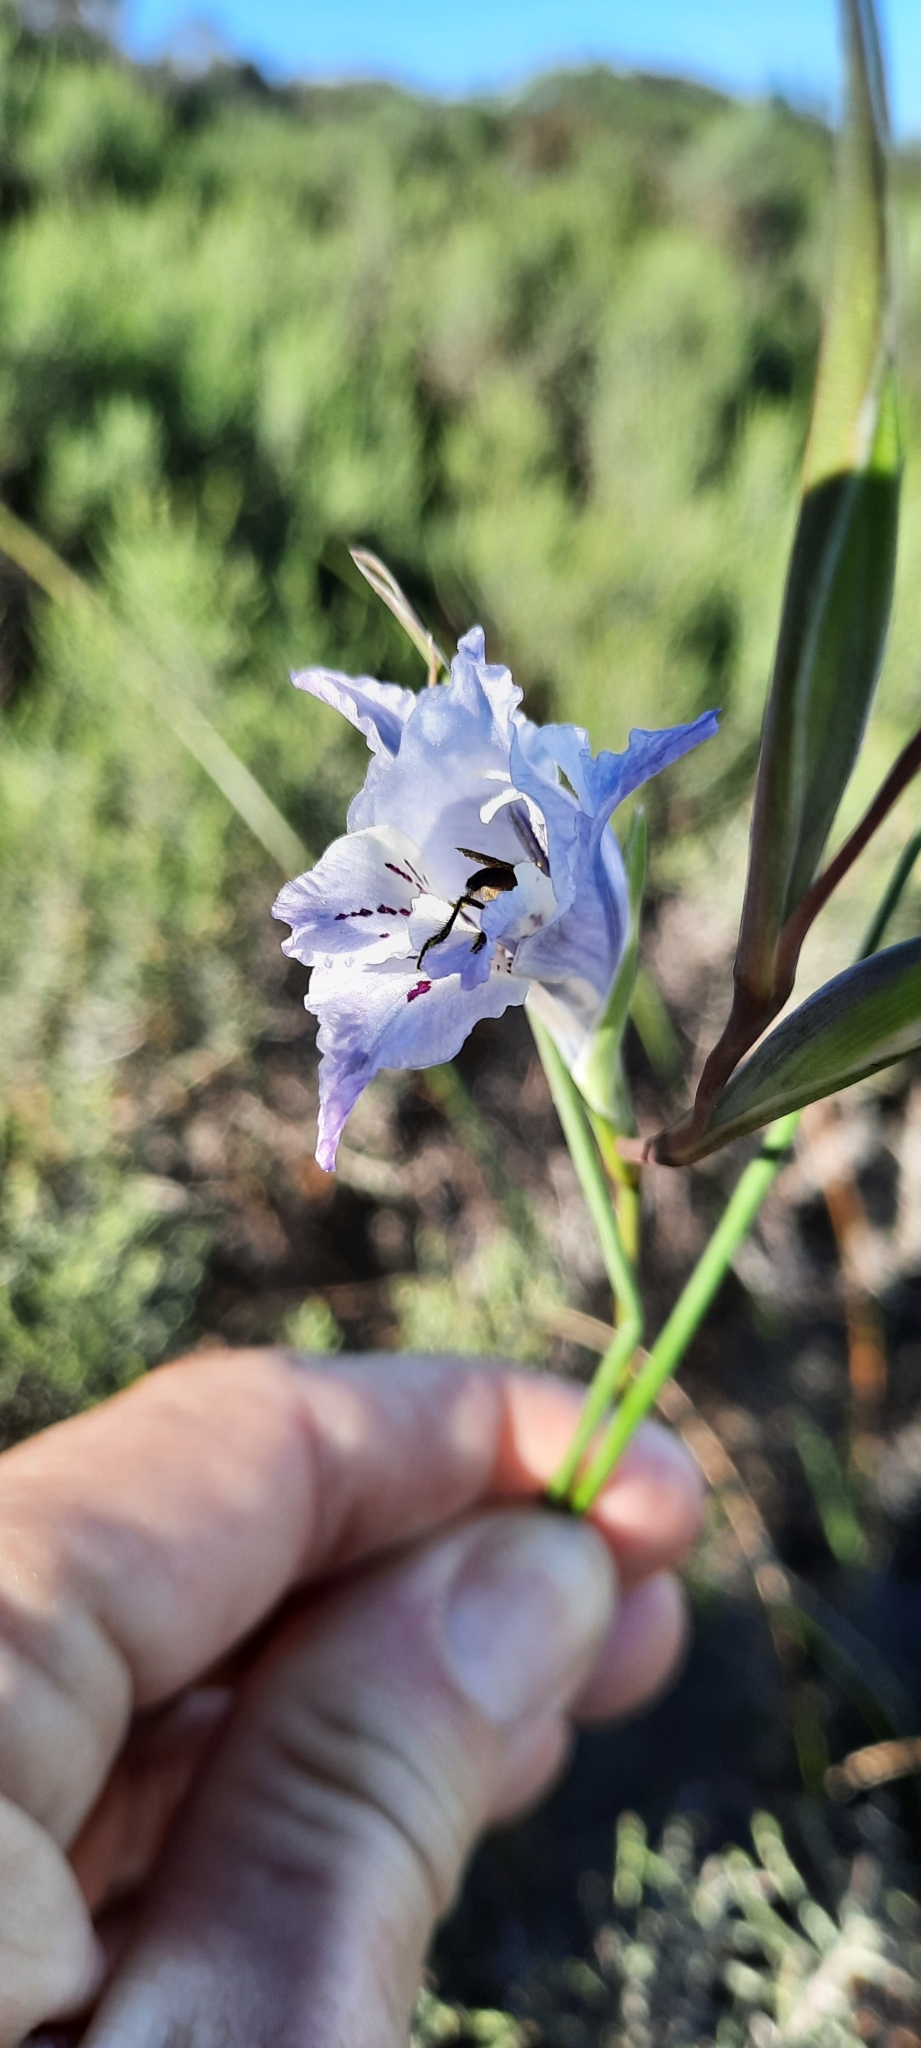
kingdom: Plantae
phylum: Tracheophyta
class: Liliopsida
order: Asparagales
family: Iridaceae
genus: Gladiolus
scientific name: Gladiolus gracilis
